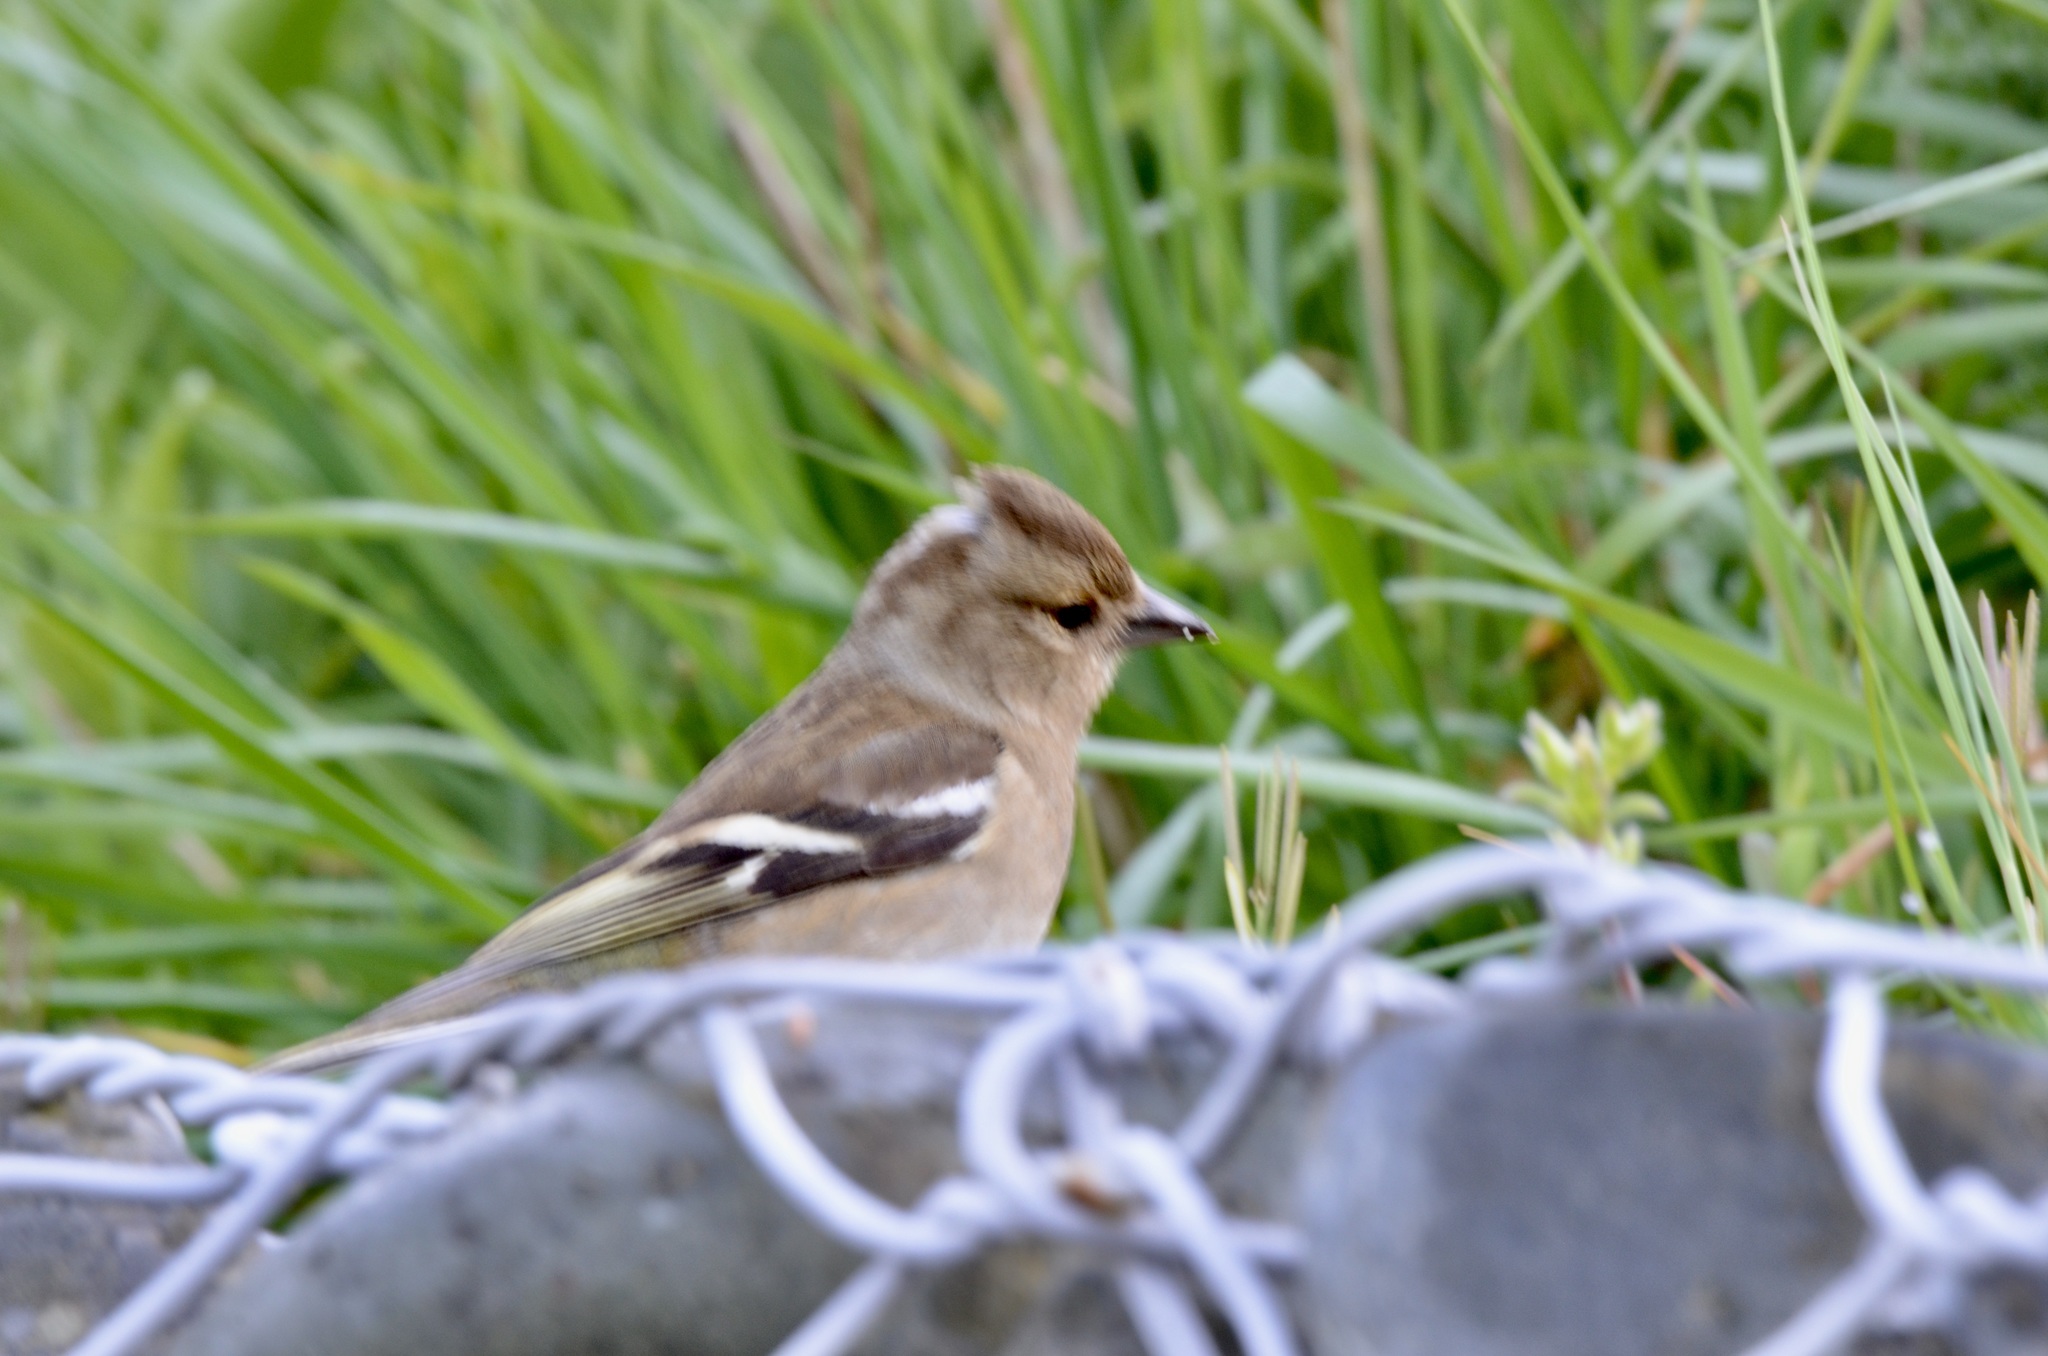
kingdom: Animalia
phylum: Chordata
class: Aves
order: Passeriformes
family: Fringillidae
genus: Fringilla
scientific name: Fringilla coelebs
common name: Common chaffinch
